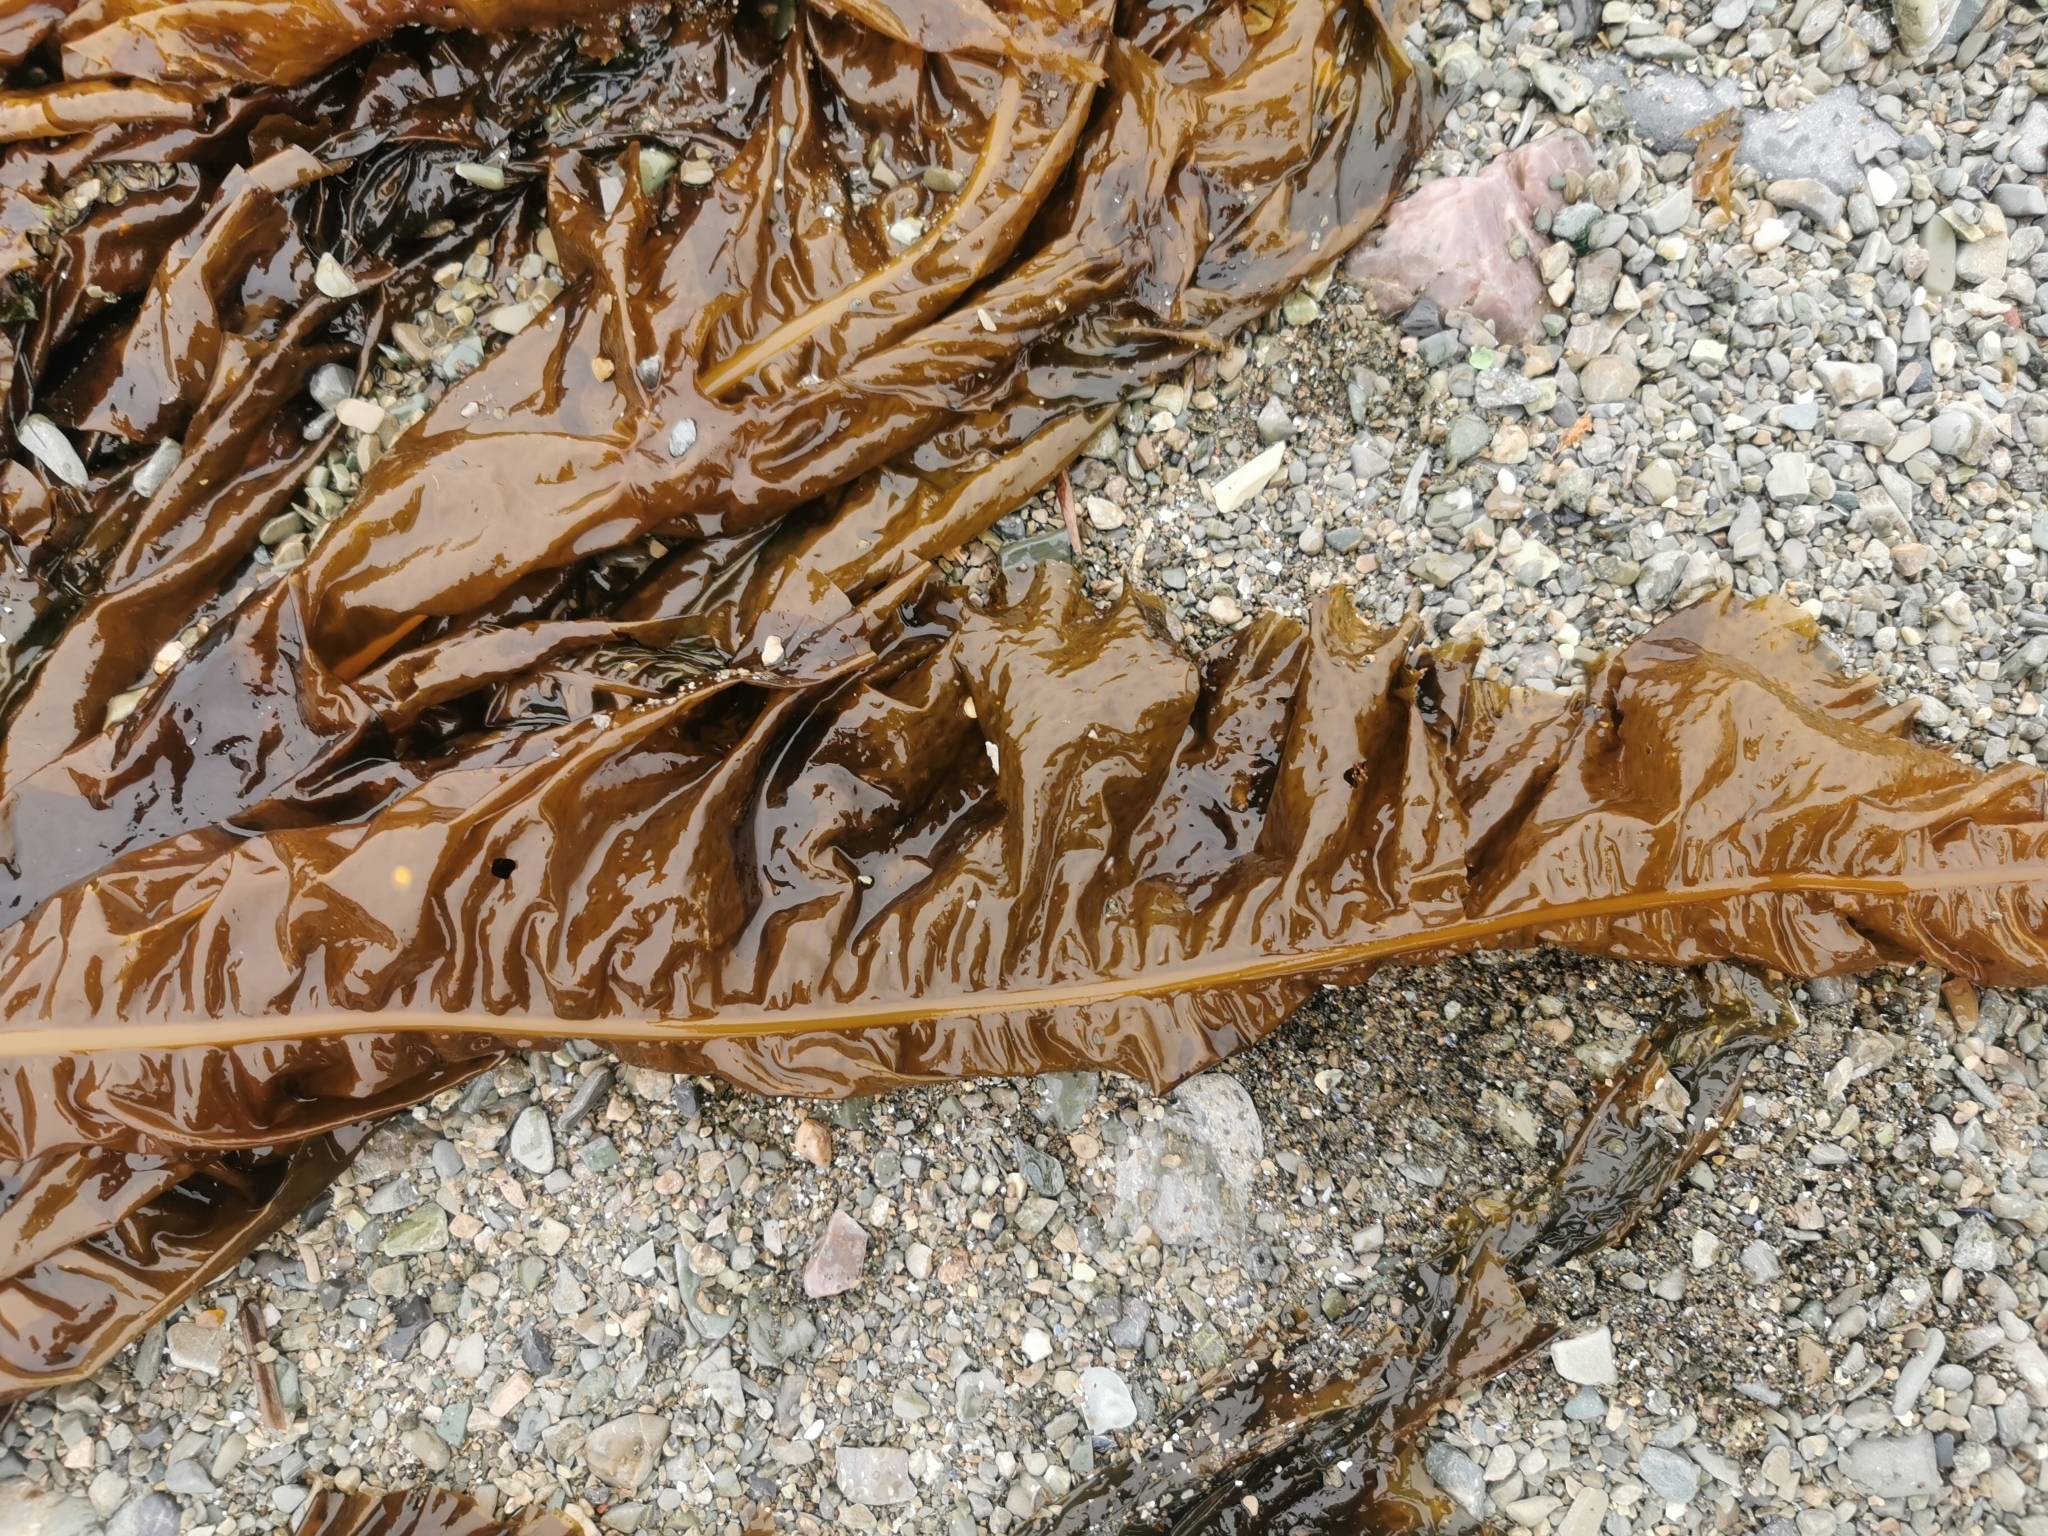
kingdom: Chromista
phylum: Ochrophyta
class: Phaeophyceae
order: Laminariales
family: Alariaceae
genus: Alaria
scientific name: Alaria esculenta
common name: Dabberlocks
